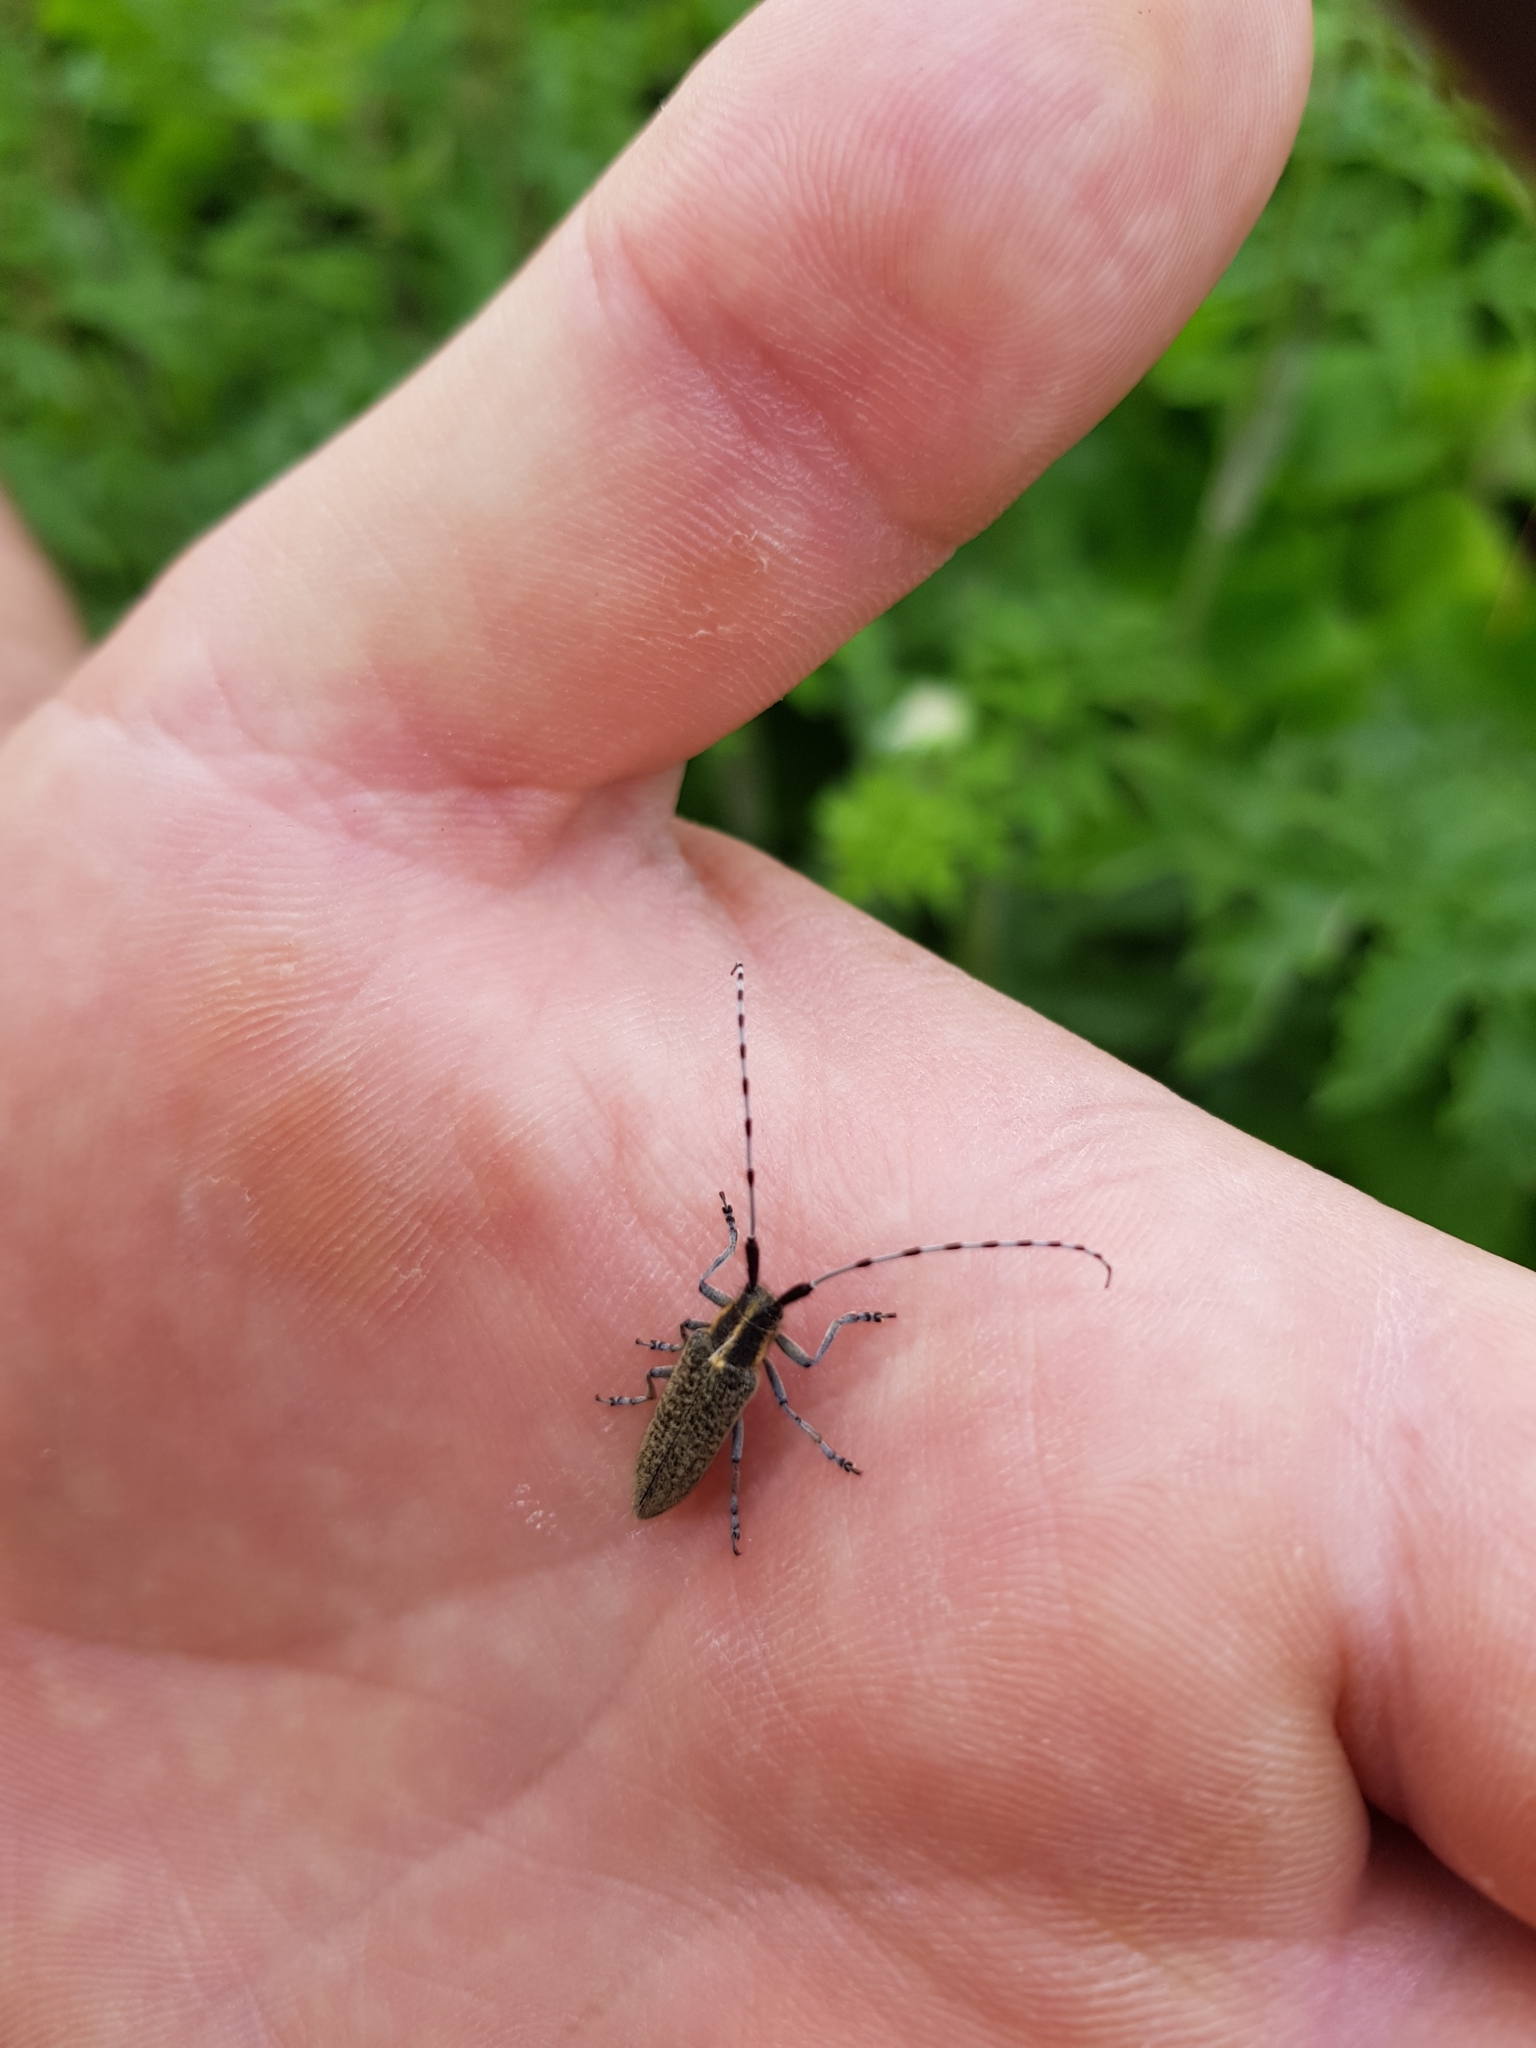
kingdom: Animalia
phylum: Arthropoda
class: Insecta
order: Coleoptera
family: Cerambycidae
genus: Agapanthia
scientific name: Agapanthia villosoviridescens
